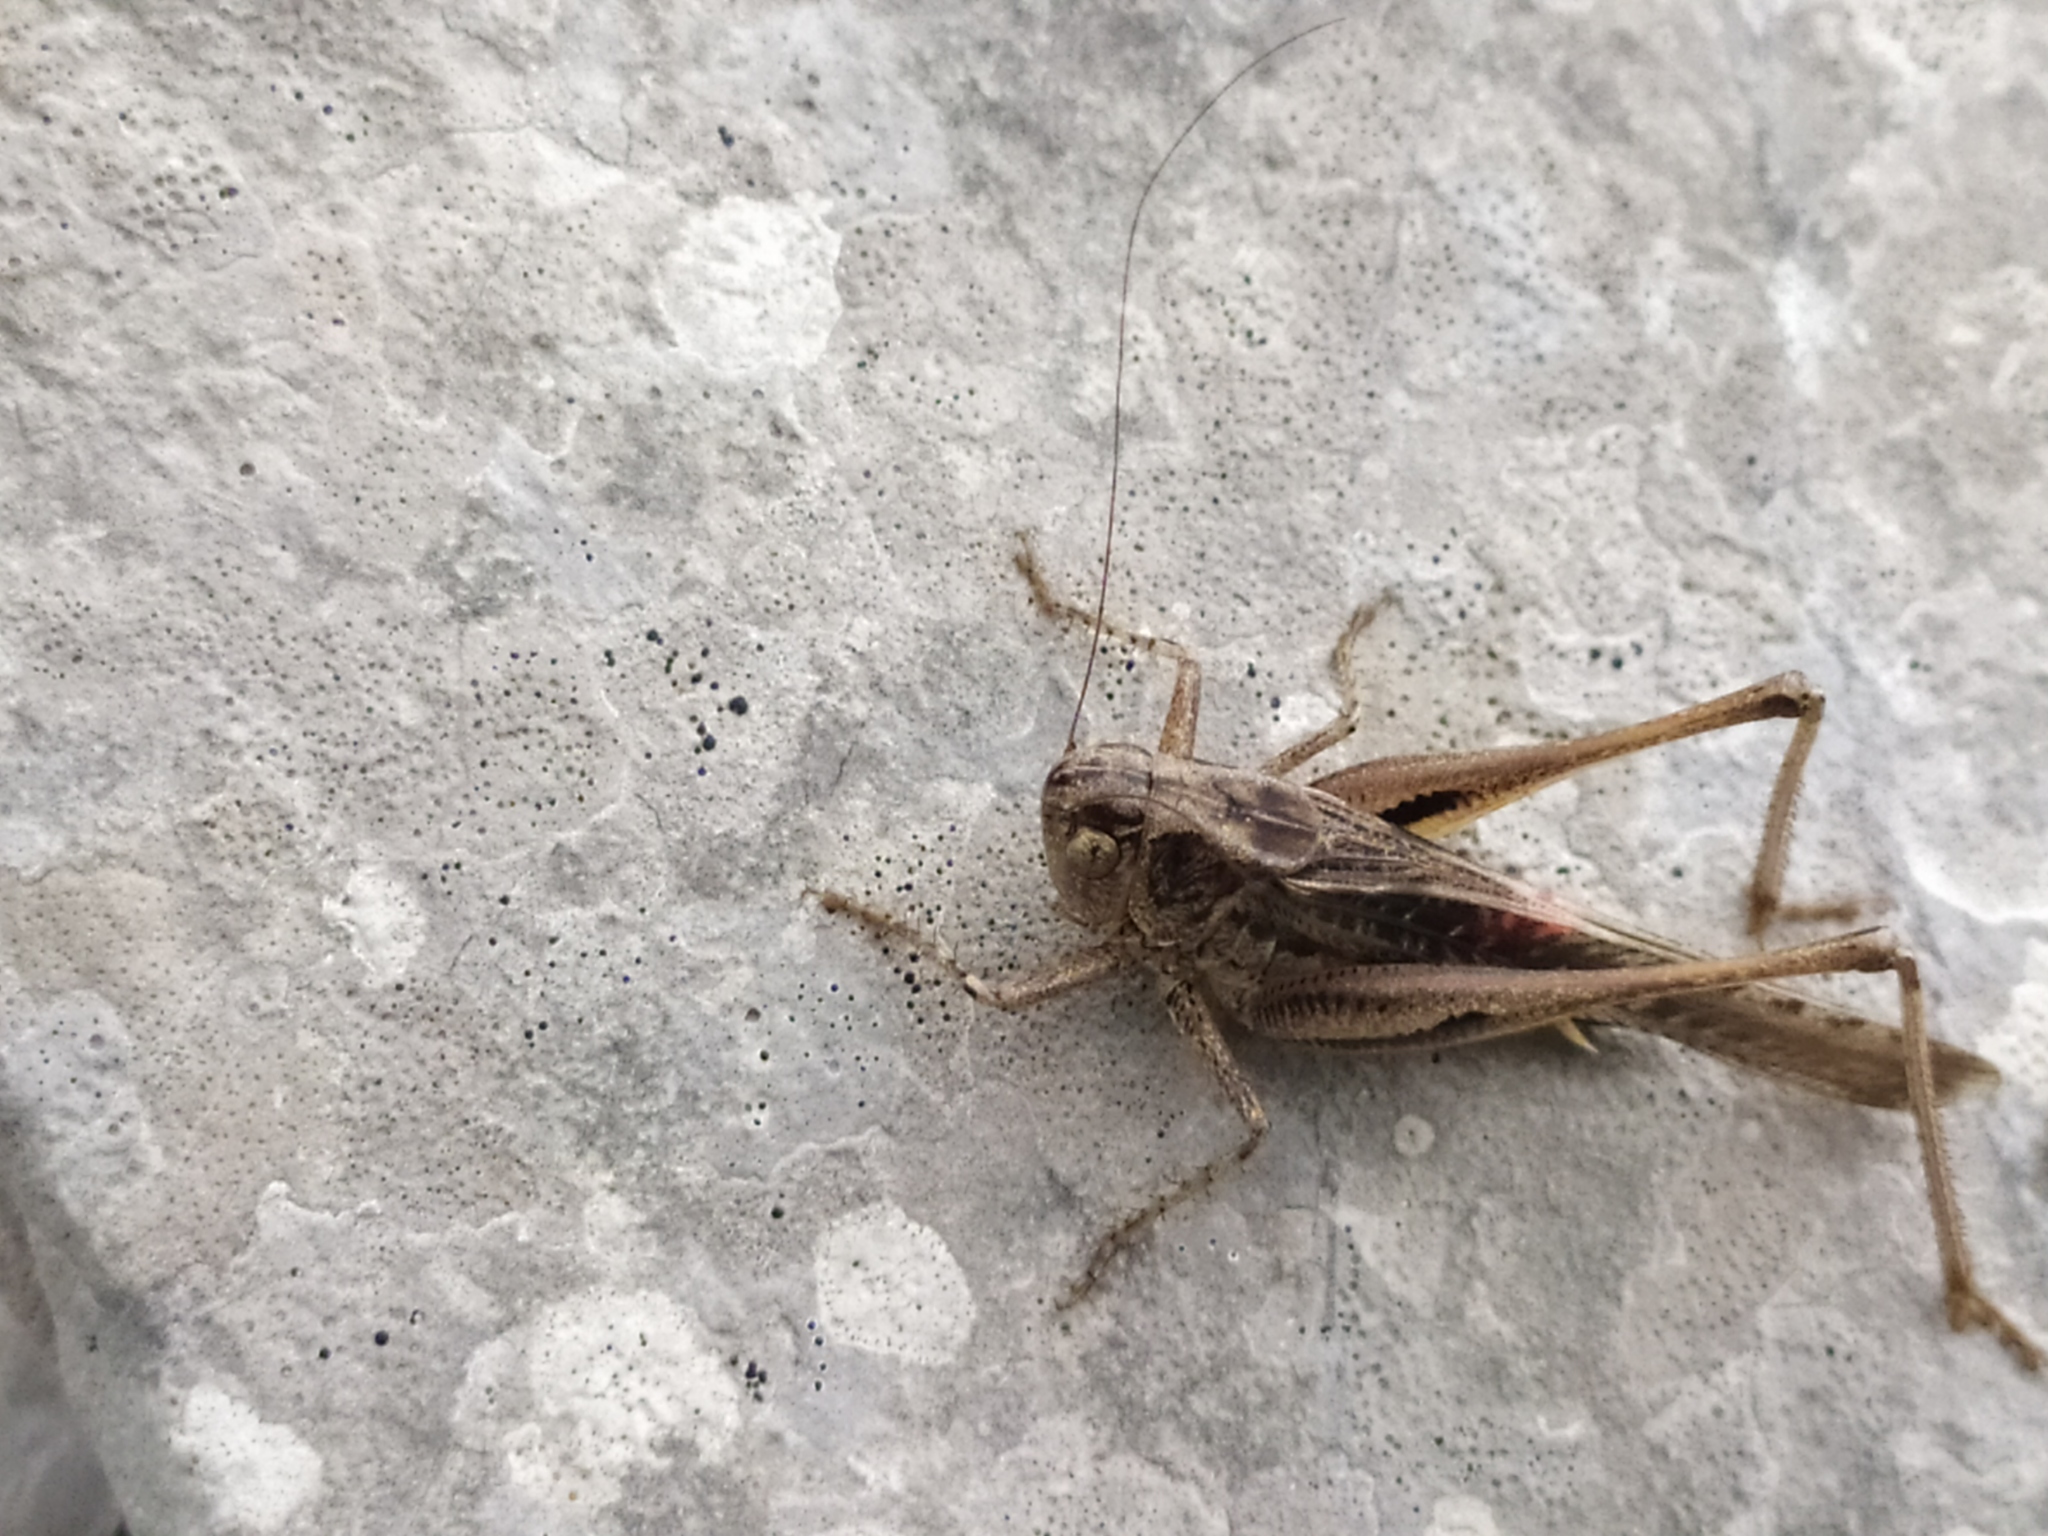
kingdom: Animalia
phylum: Arthropoda
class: Insecta
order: Orthoptera
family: Tettigoniidae
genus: Platycleis
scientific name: Platycleis grisea
